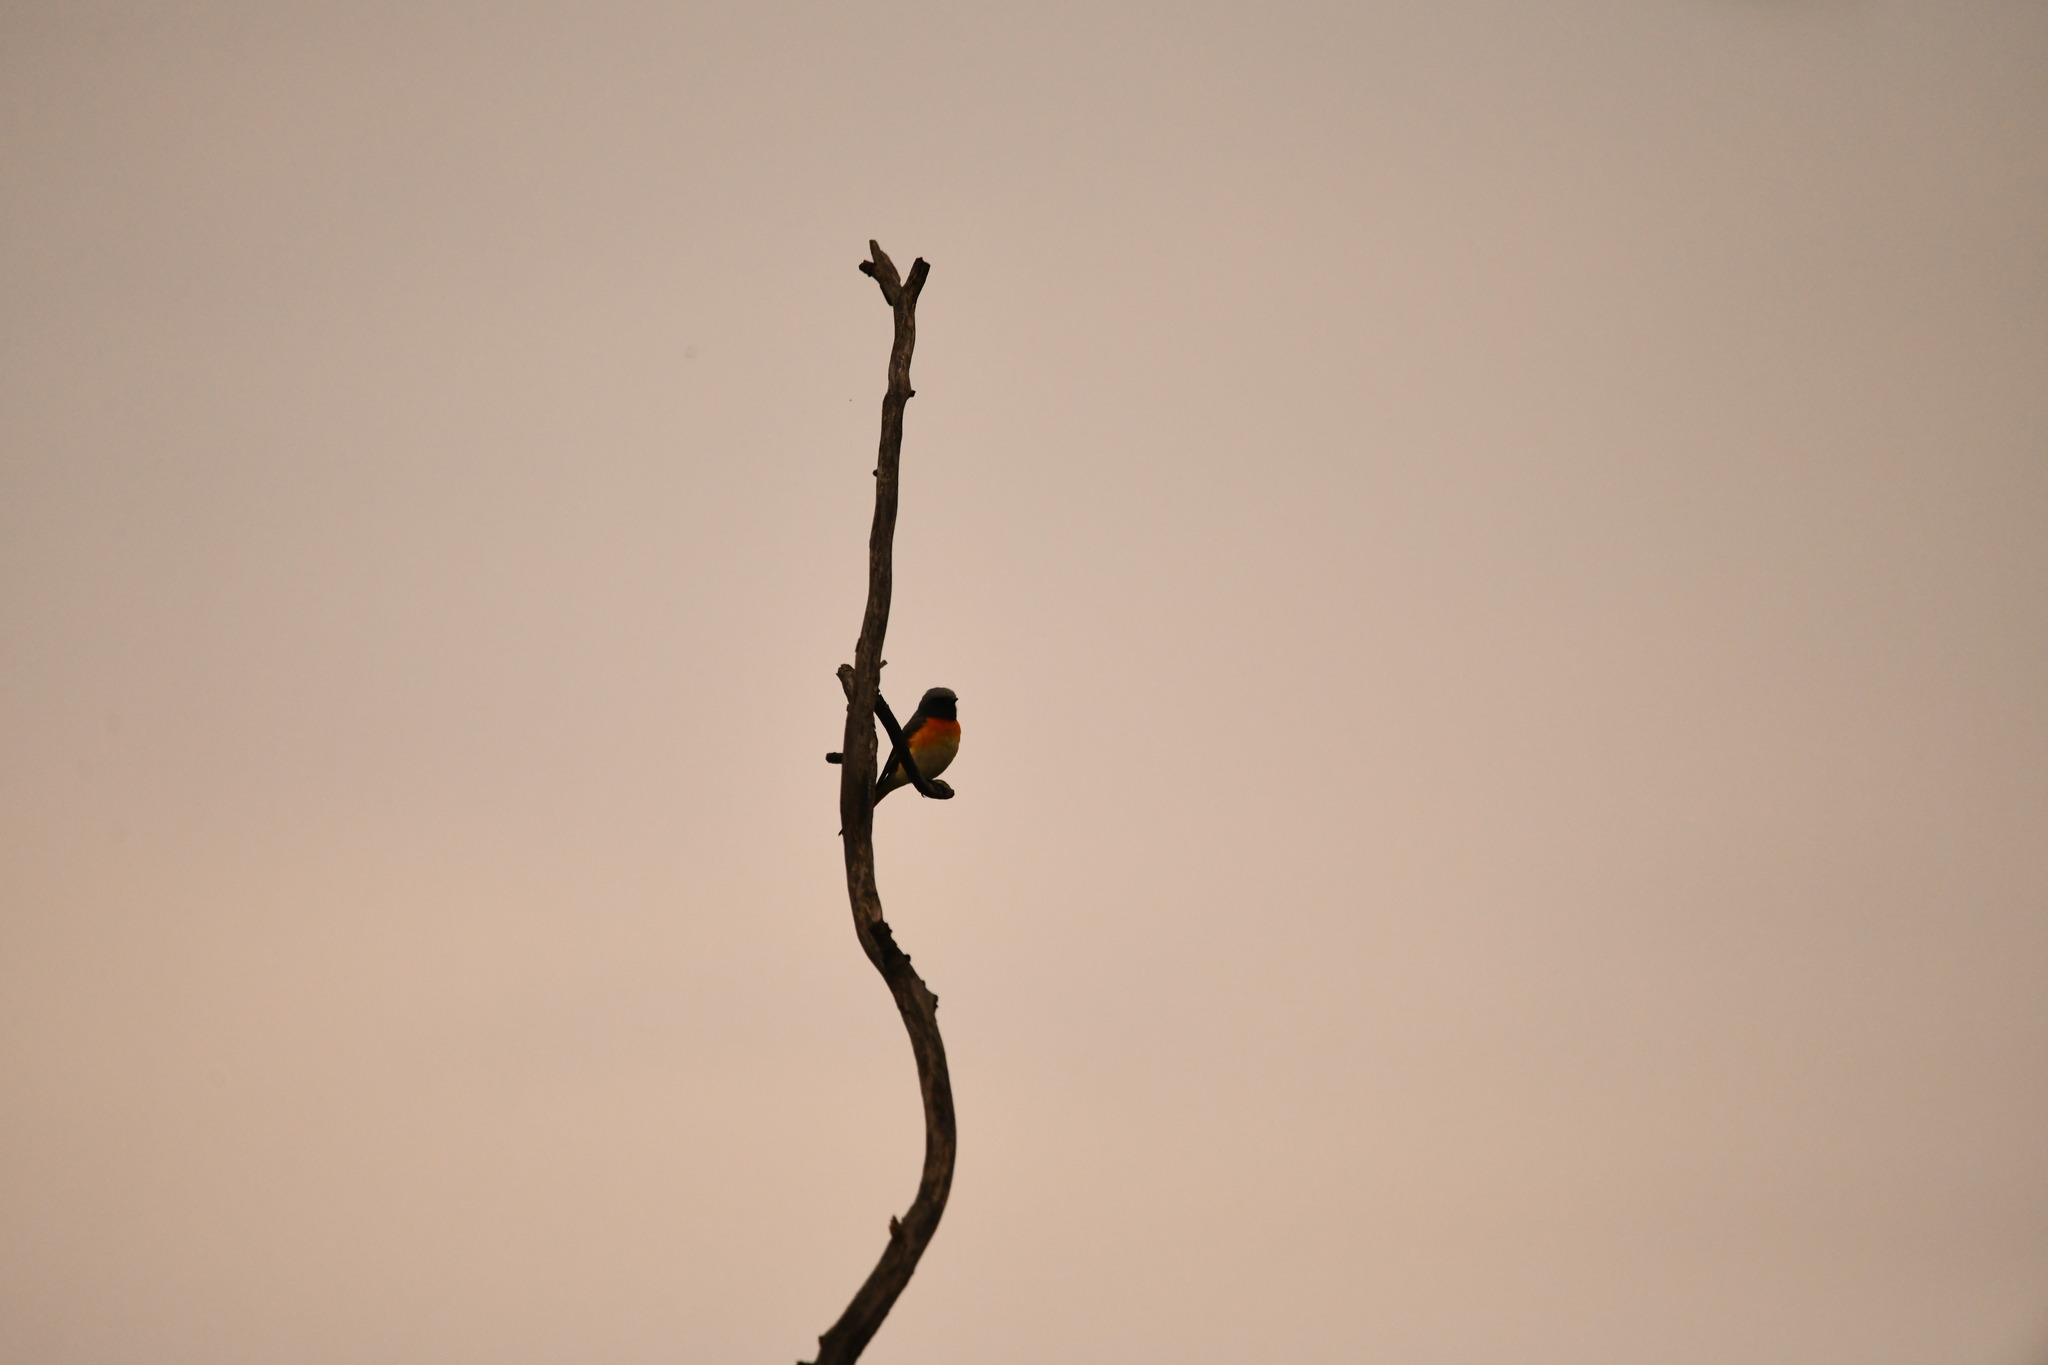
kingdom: Animalia
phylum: Chordata
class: Aves
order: Passeriformes
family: Campephagidae
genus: Pericrocotus
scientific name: Pericrocotus cinnamomeus
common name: Small minivet
